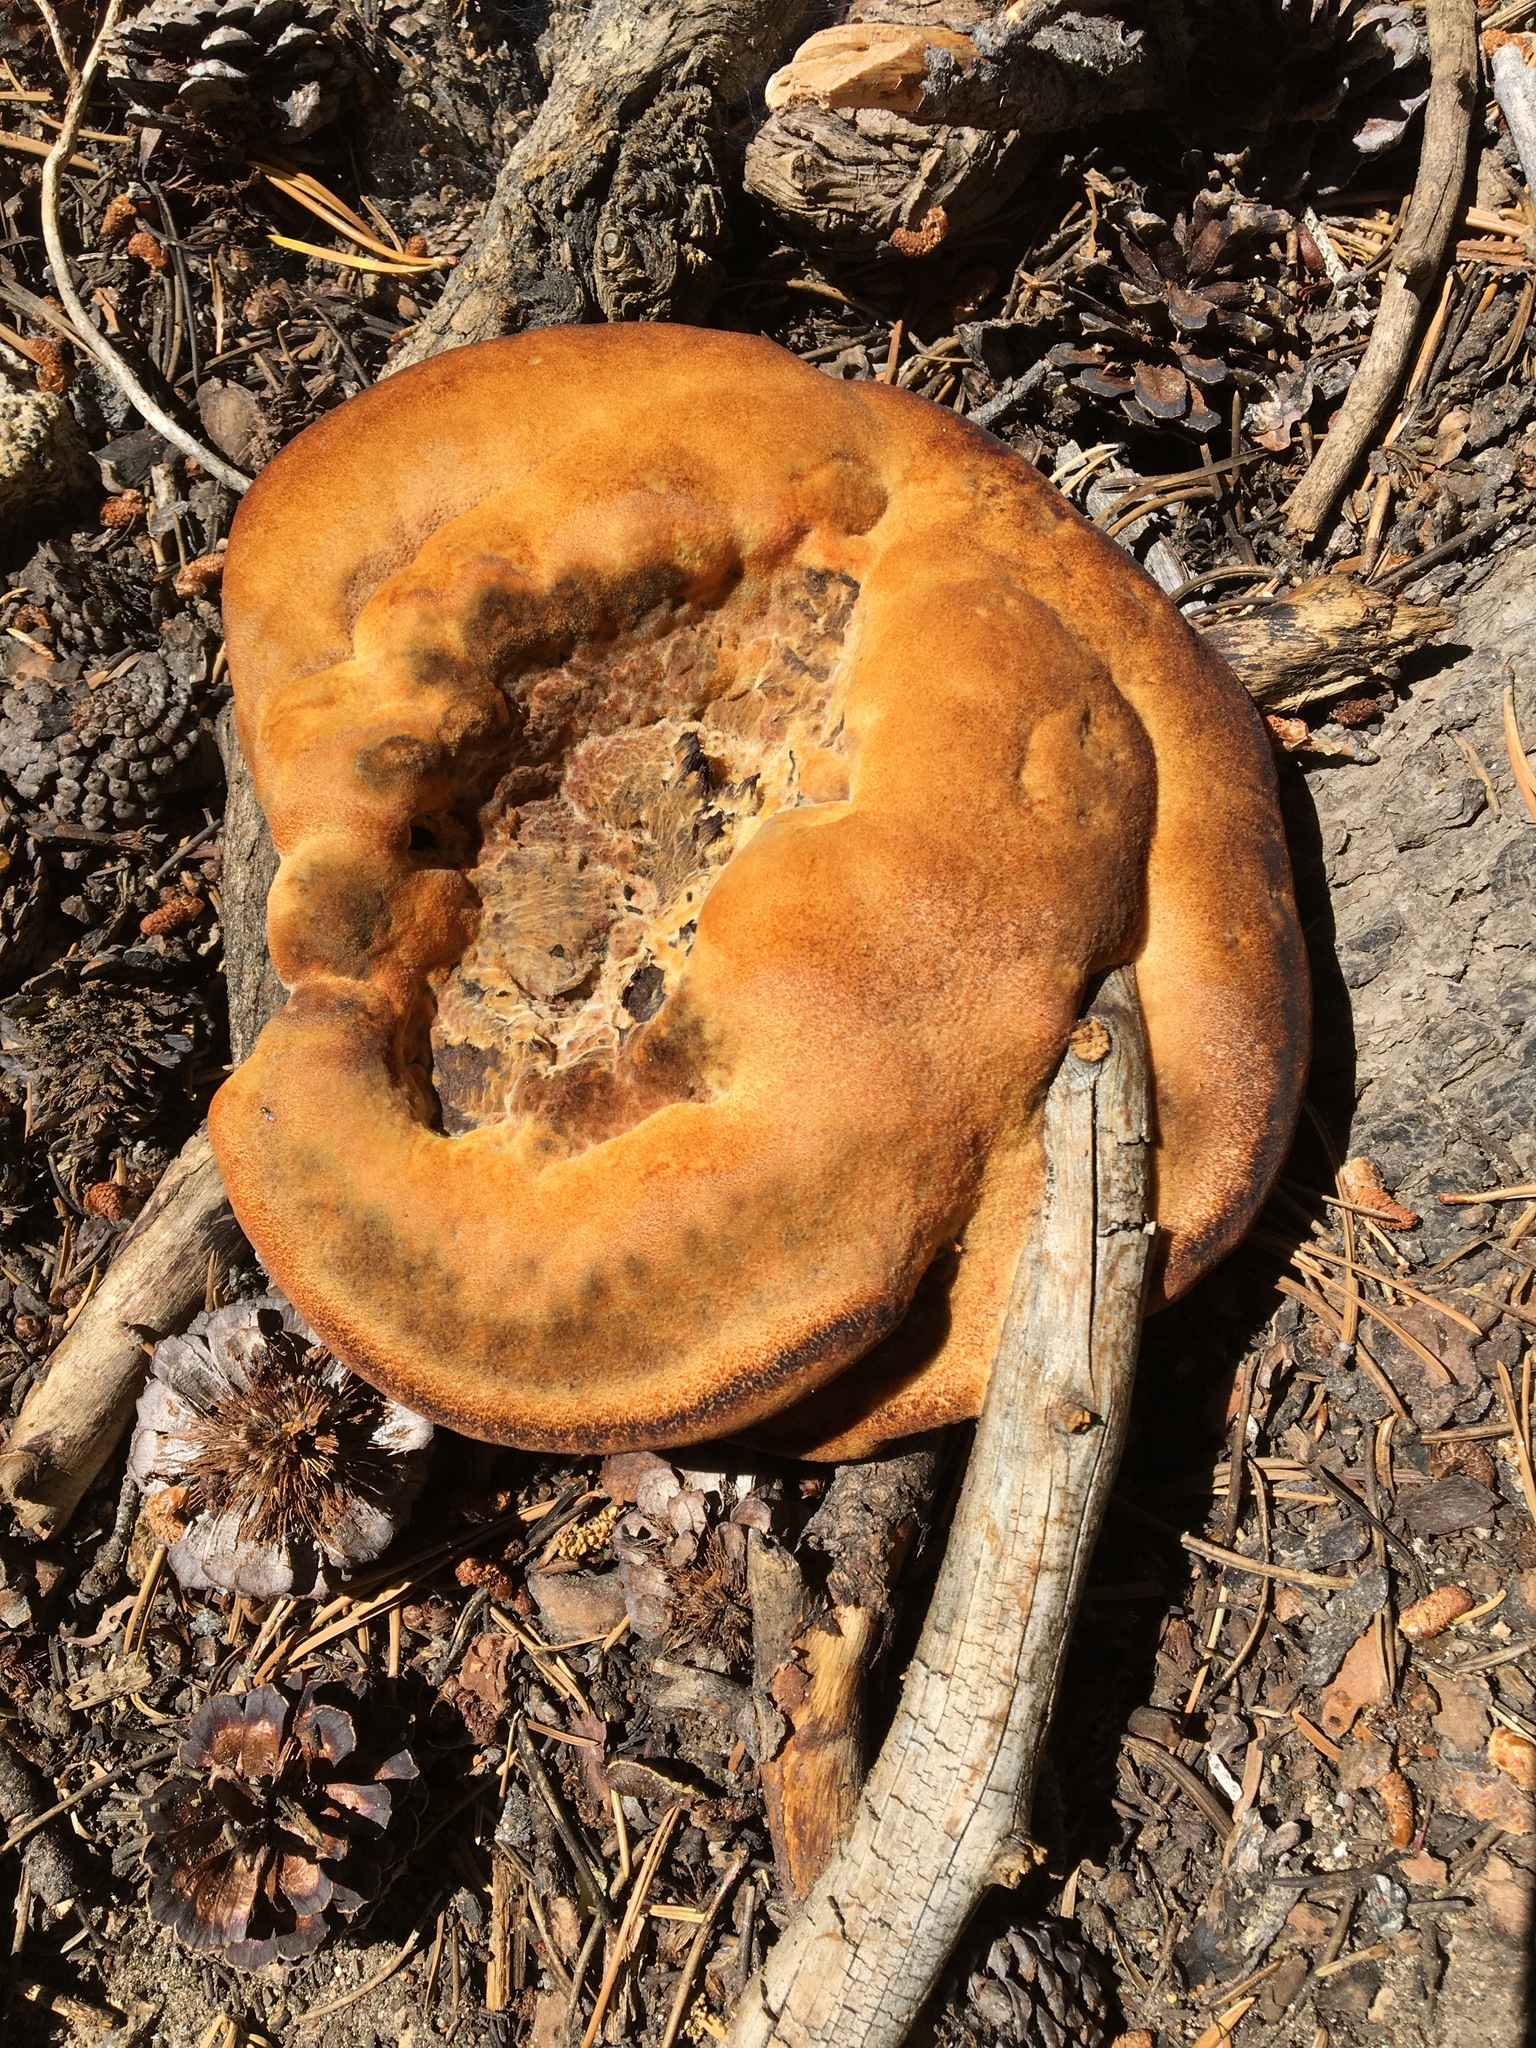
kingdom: Fungi
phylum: Basidiomycota
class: Agaricomycetes
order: Polyporales
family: Laetiporaceae
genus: Phaeolus
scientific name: Phaeolus schweinitzii
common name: Dyer's mazegill
